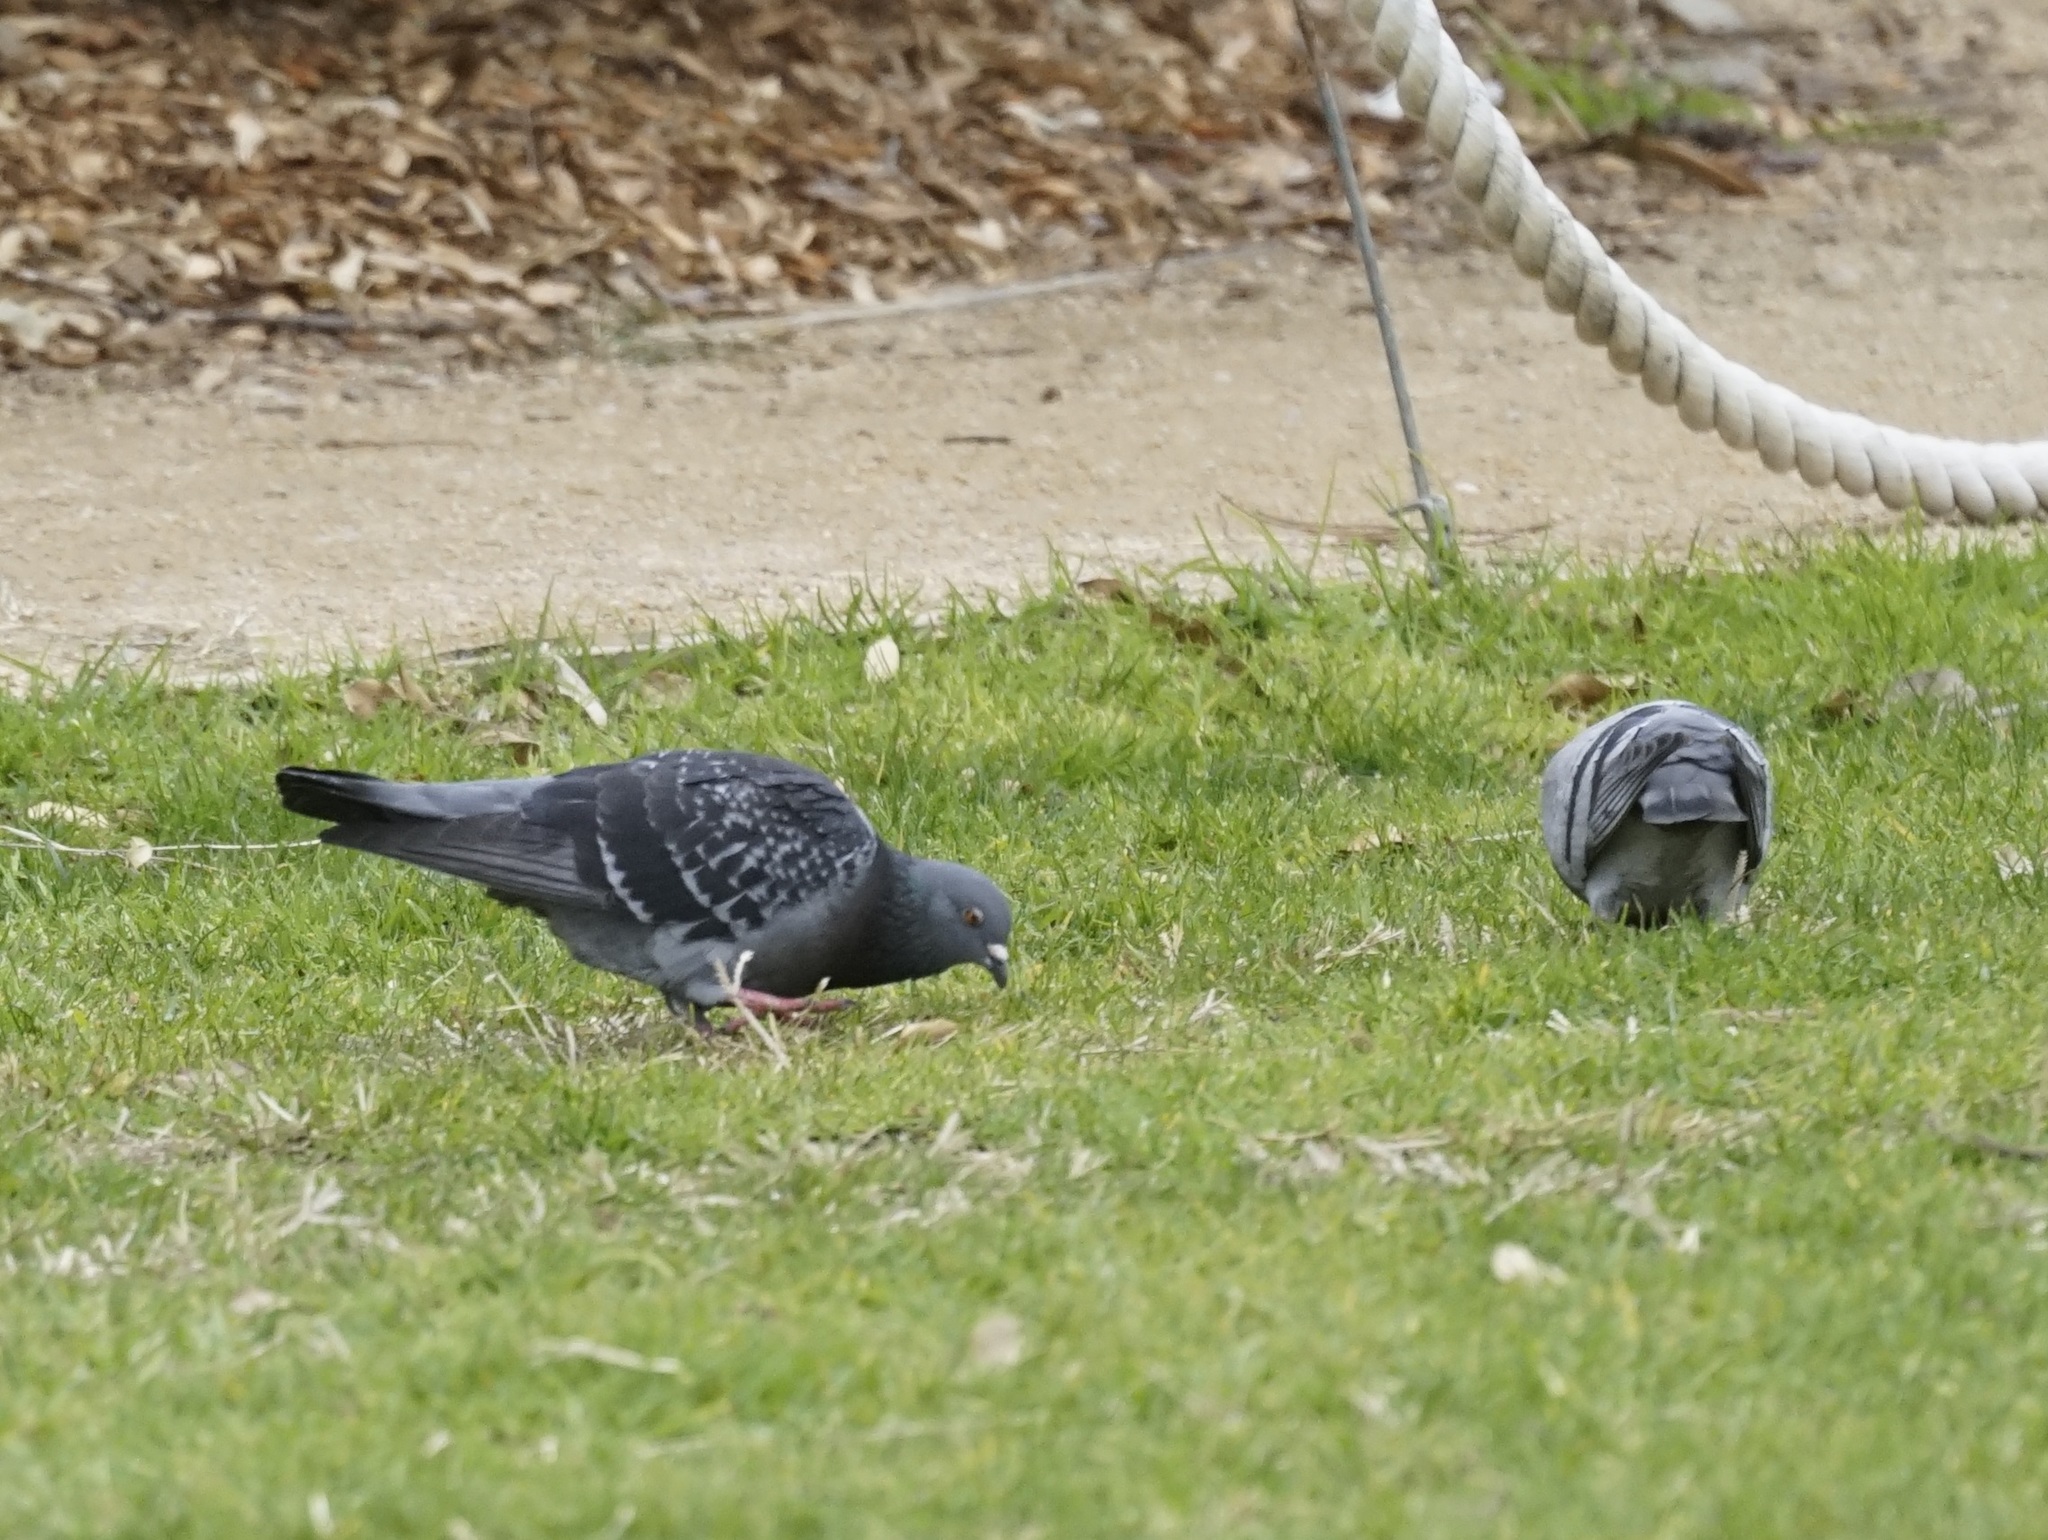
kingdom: Animalia
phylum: Chordata
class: Aves
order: Columbiformes
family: Columbidae
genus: Columba
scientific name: Columba livia
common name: Rock pigeon
